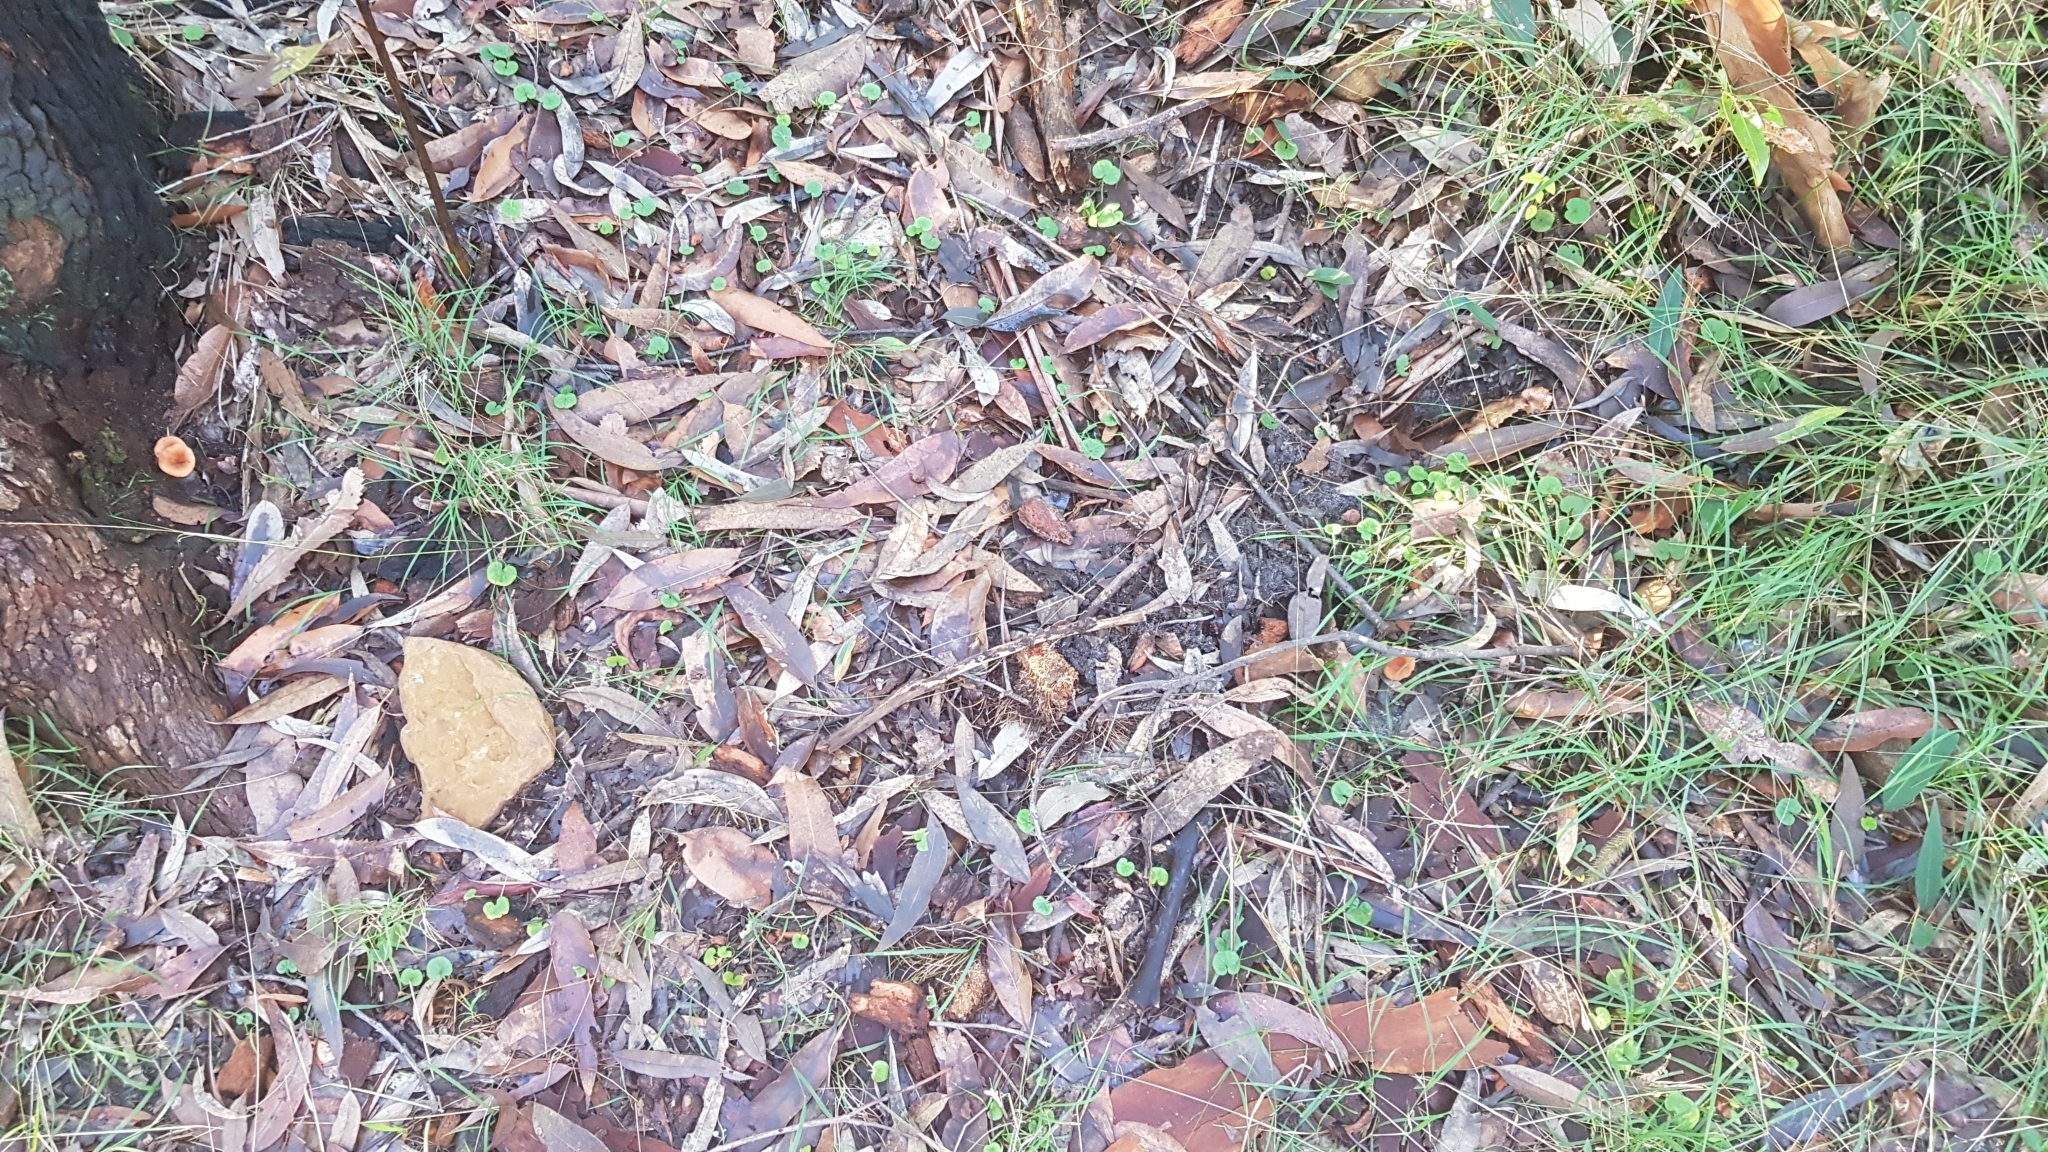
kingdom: Fungi
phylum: Basidiomycota
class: Agaricomycetes
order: Russulales
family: Russulaceae
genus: Lactarius
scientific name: Lactarius eucalypti
